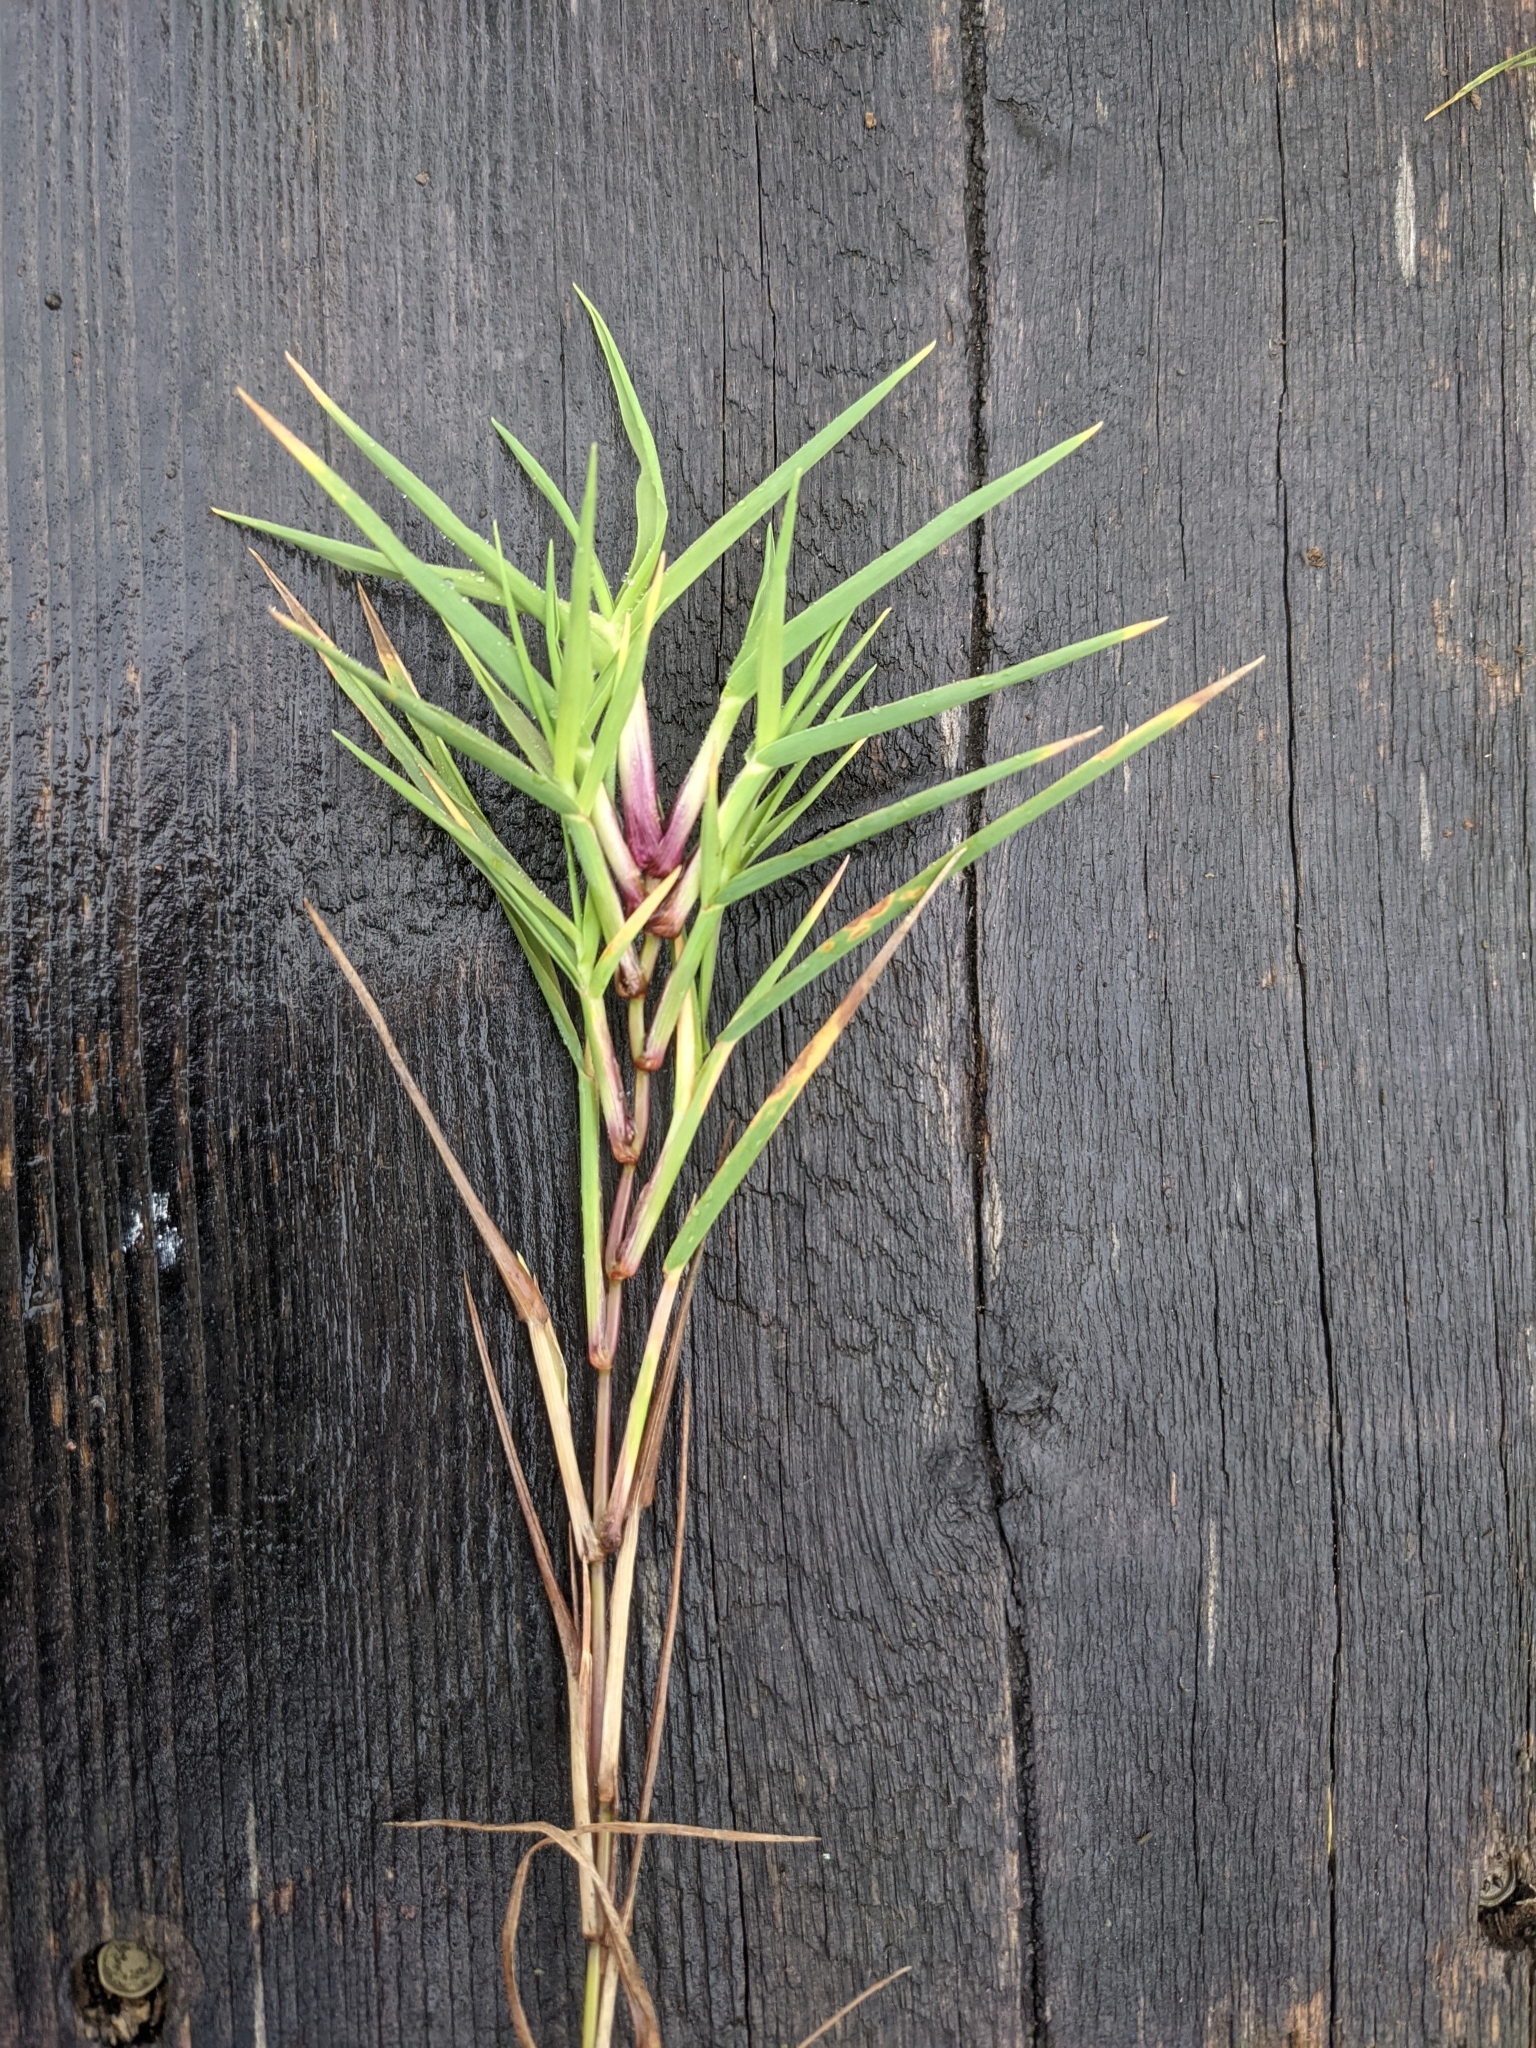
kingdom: Plantae
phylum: Tracheophyta
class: Liliopsida
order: Poales
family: Poaceae
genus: Digitaria
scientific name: Digitaria ischaemum
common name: Smooth crabgrass
